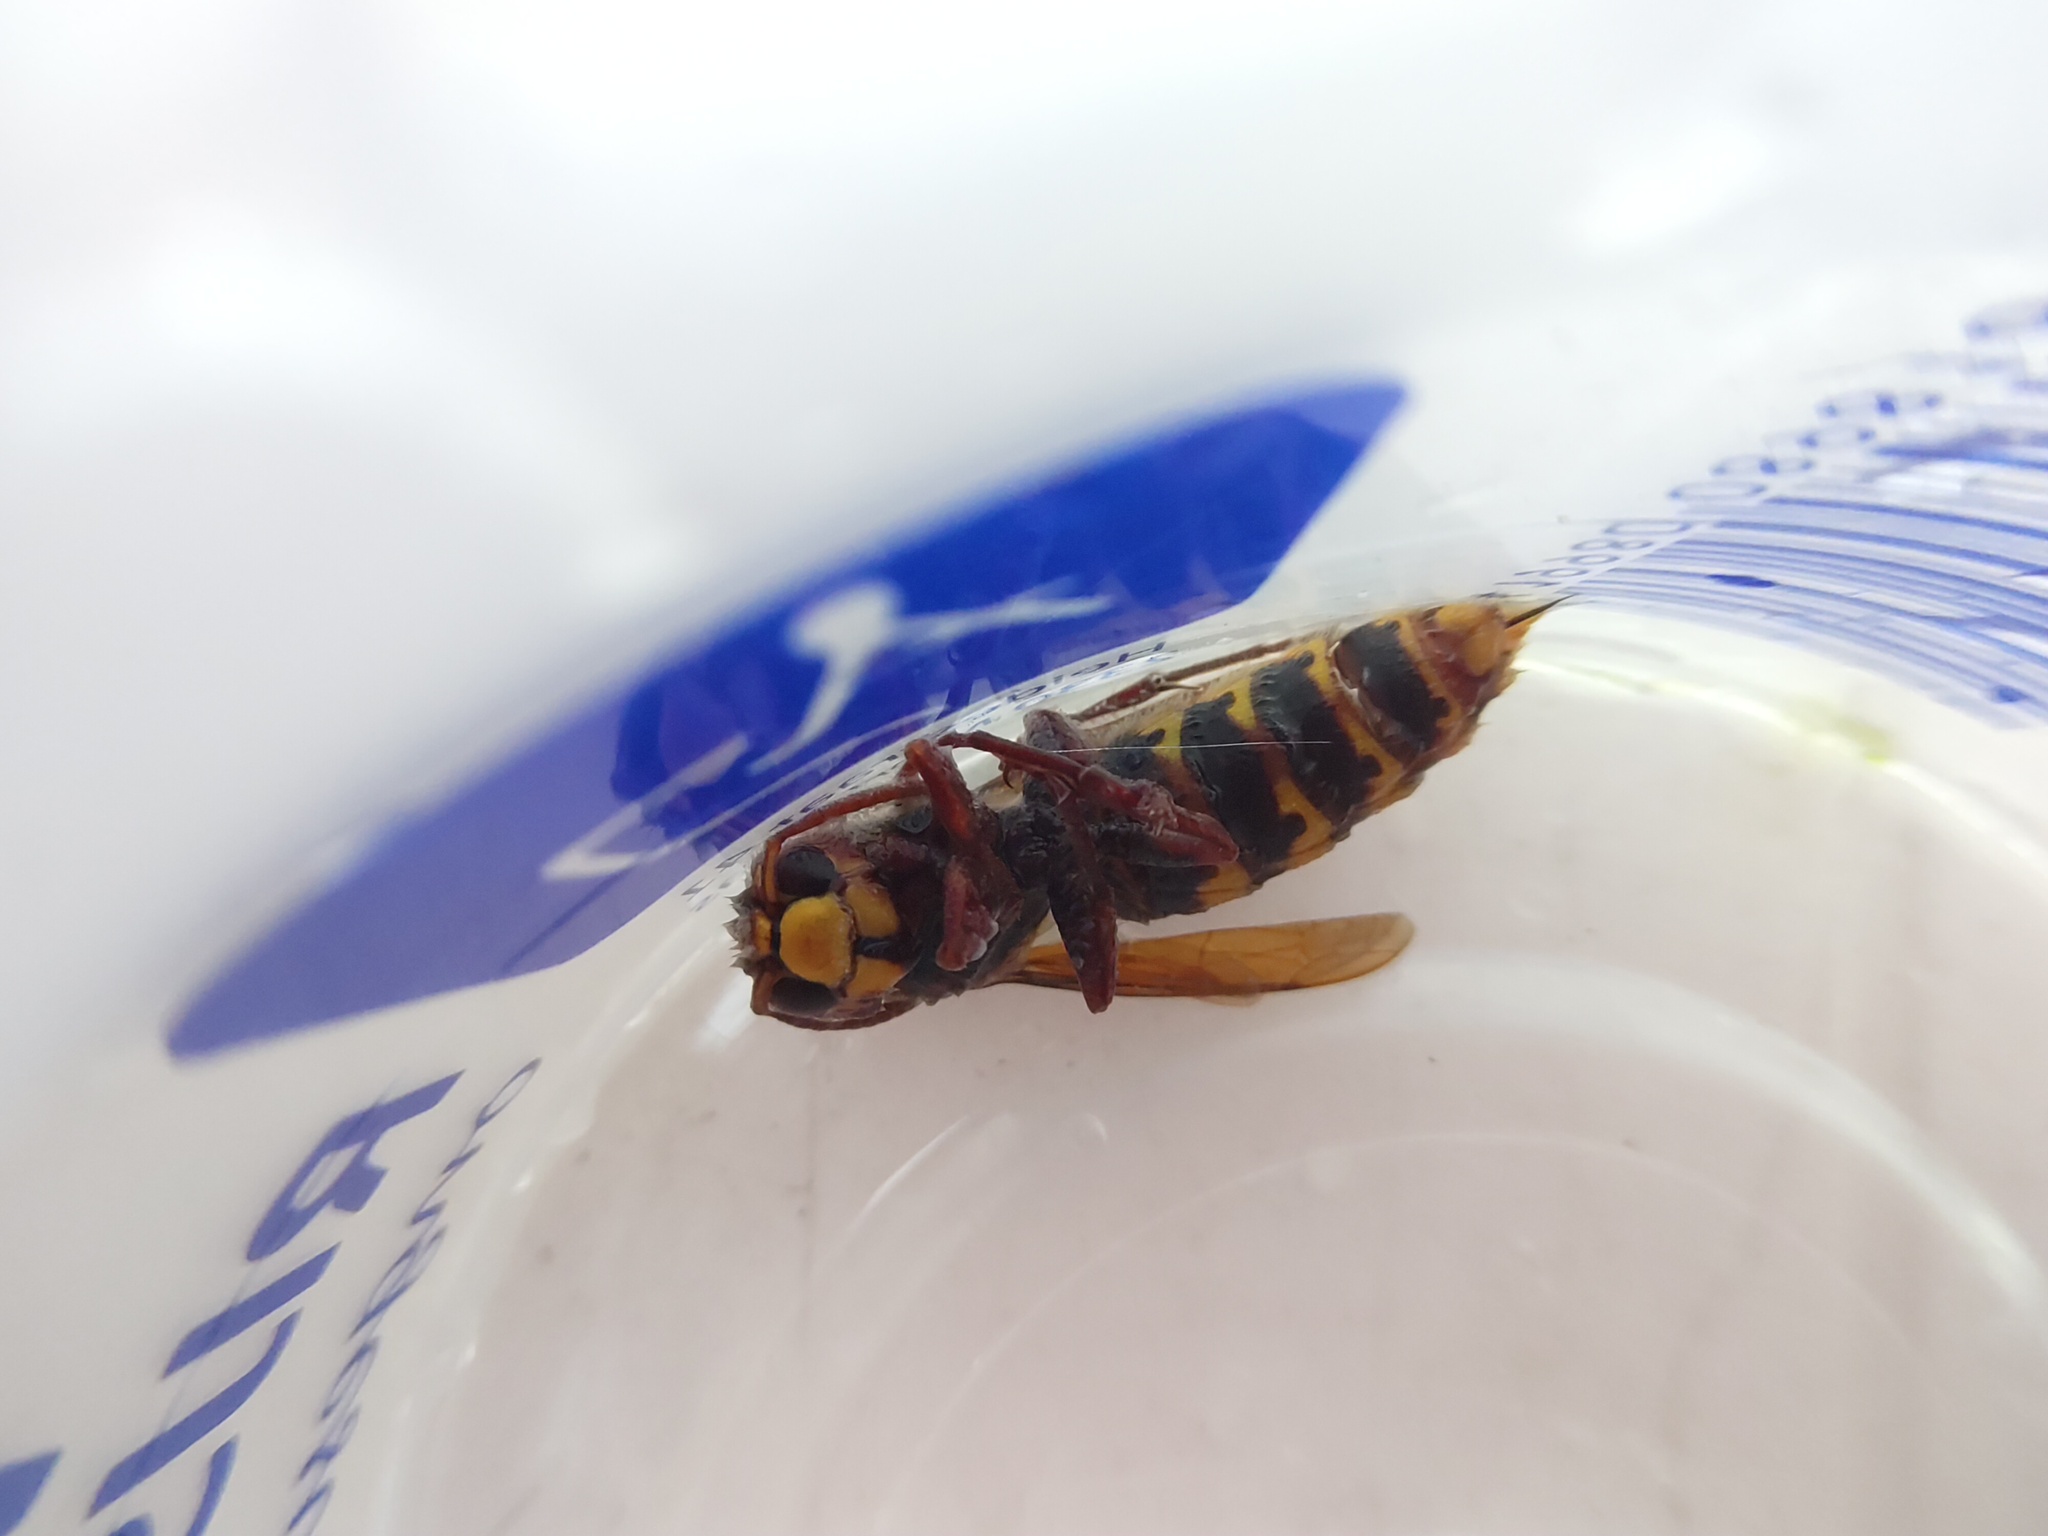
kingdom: Animalia
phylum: Arthropoda
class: Insecta
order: Hymenoptera
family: Vespidae
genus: Vespa
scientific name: Vespa crabro
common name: Hornet
